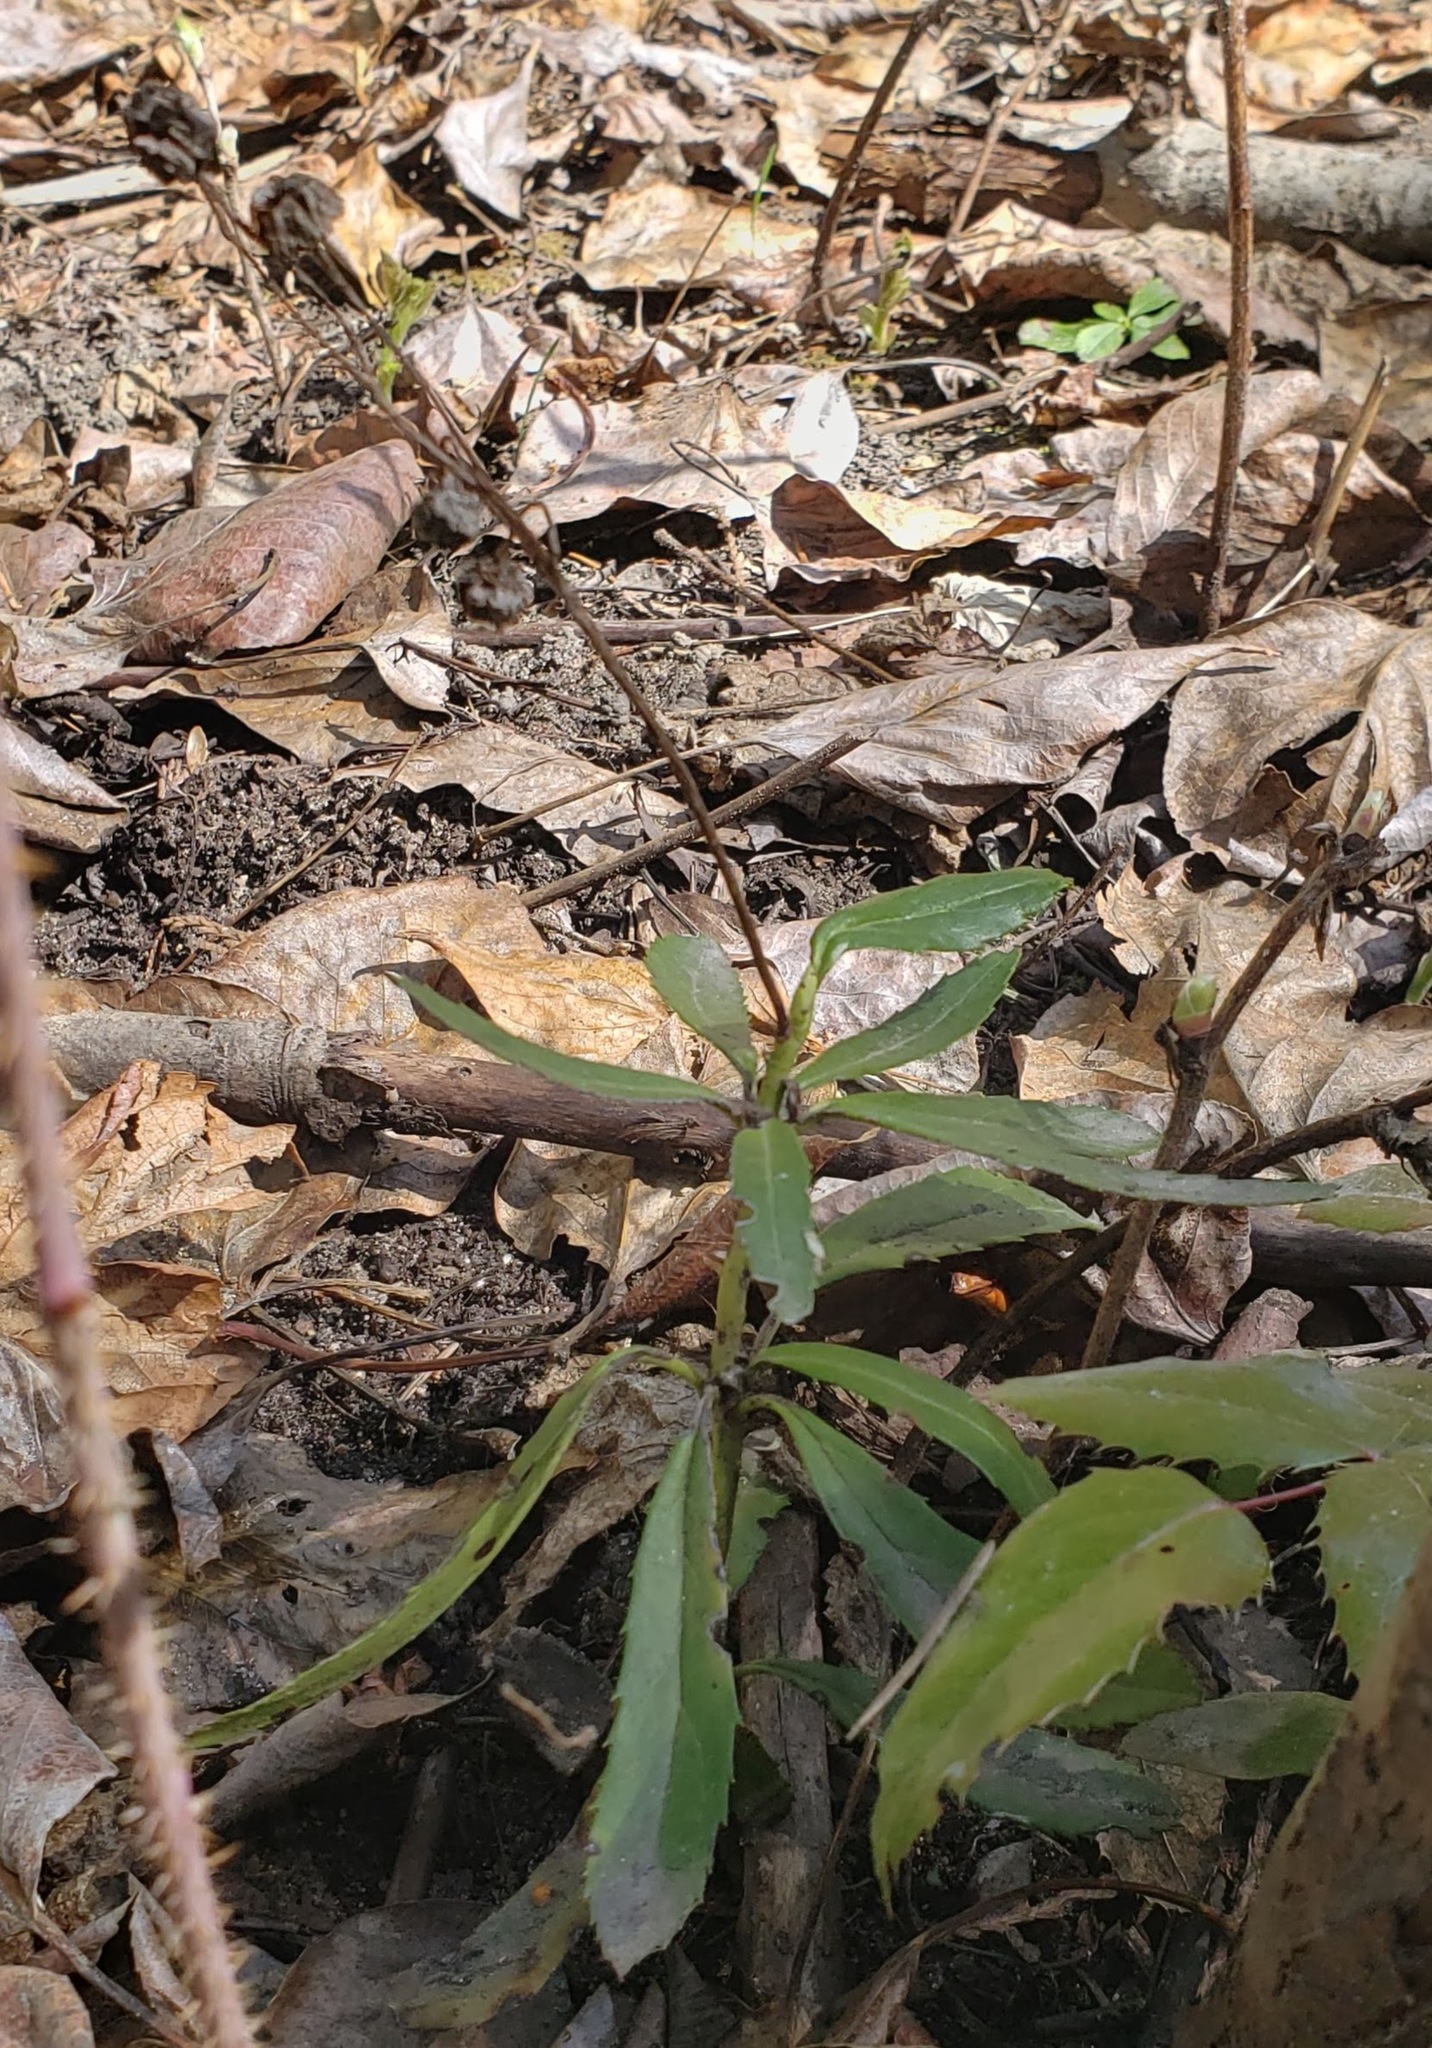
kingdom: Plantae
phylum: Tracheophyta
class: Magnoliopsida
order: Ericales
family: Ericaceae
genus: Chimaphila
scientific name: Chimaphila umbellata
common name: Pipsissewa
